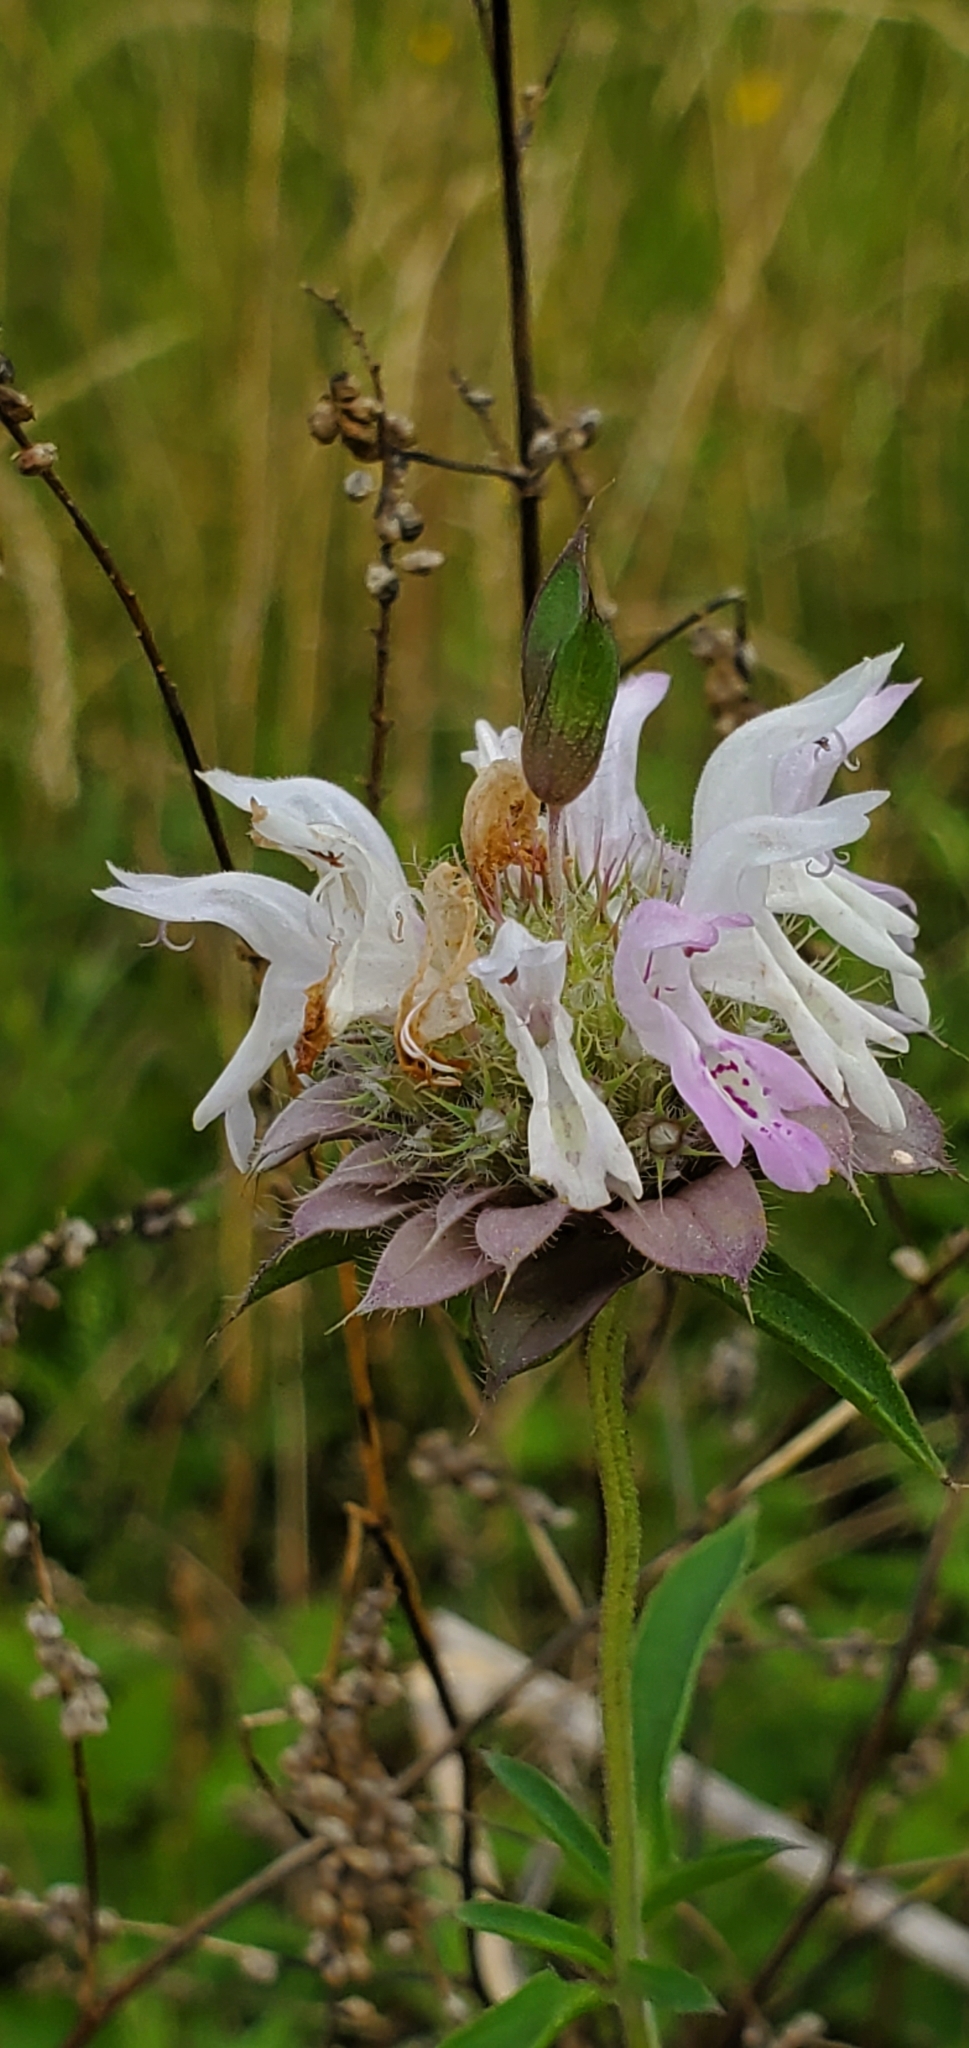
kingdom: Plantae
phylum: Tracheophyta
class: Magnoliopsida
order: Lamiales
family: Lamiaceae
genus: Monarda
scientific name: Monarda citriodora
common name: Lemon beebalm
